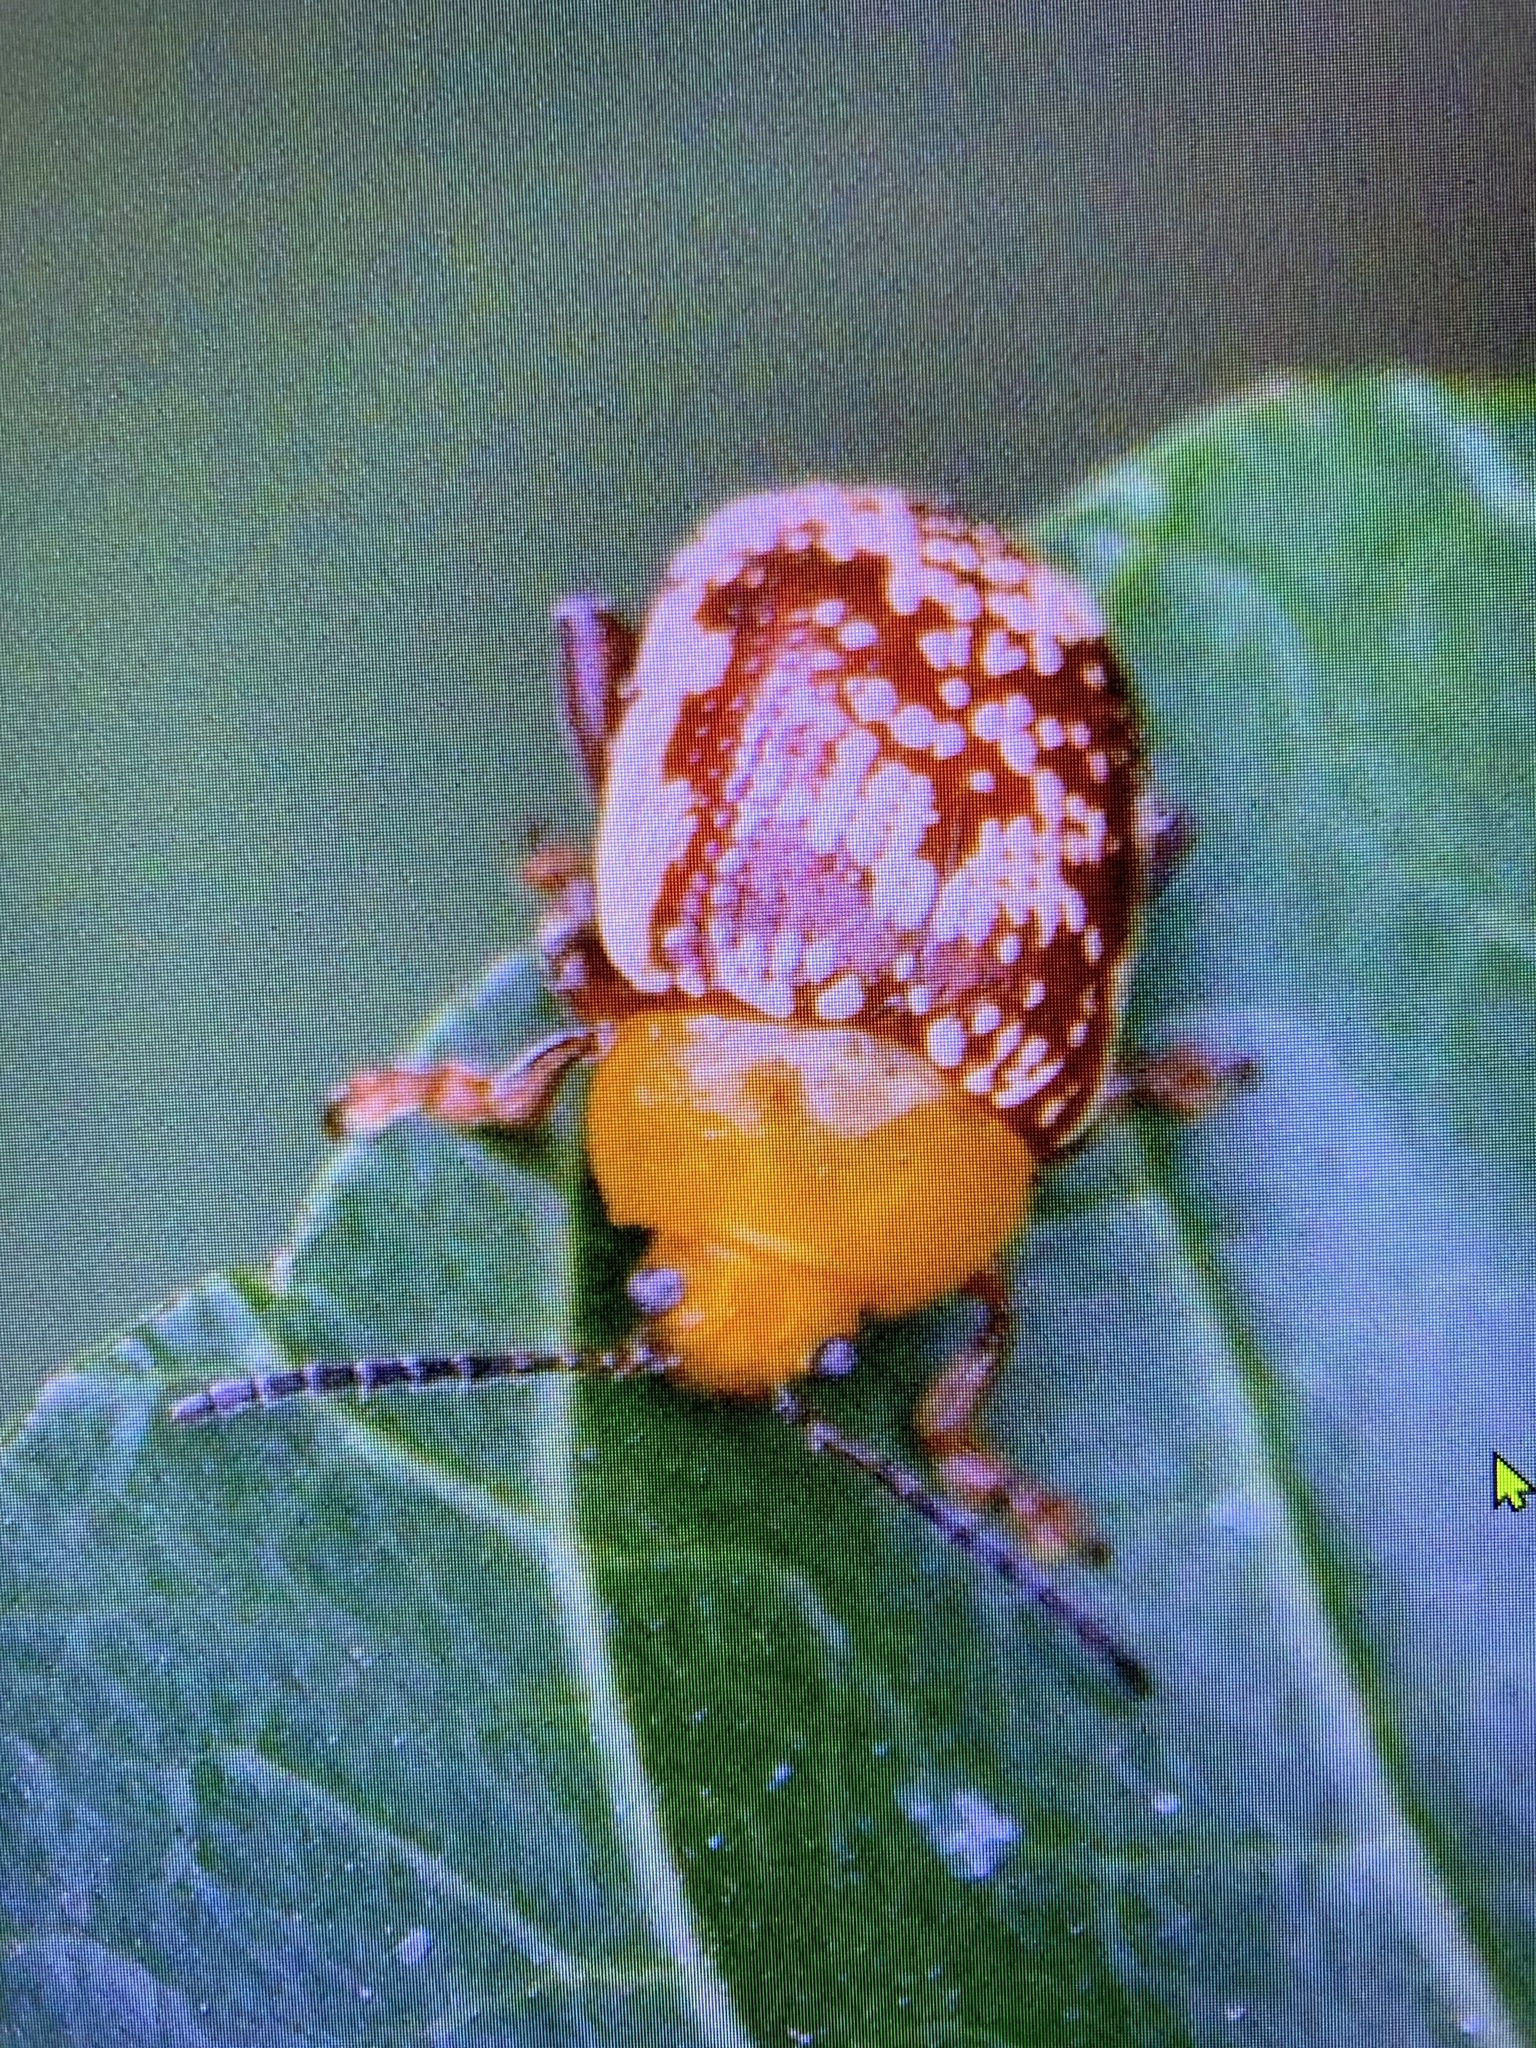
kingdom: Animalia
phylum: Arthropoda
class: Insecta
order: Coleoptera
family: Chrysomelidae
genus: Blepharida
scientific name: Blepharida rhois
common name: Sumac flea beetle
